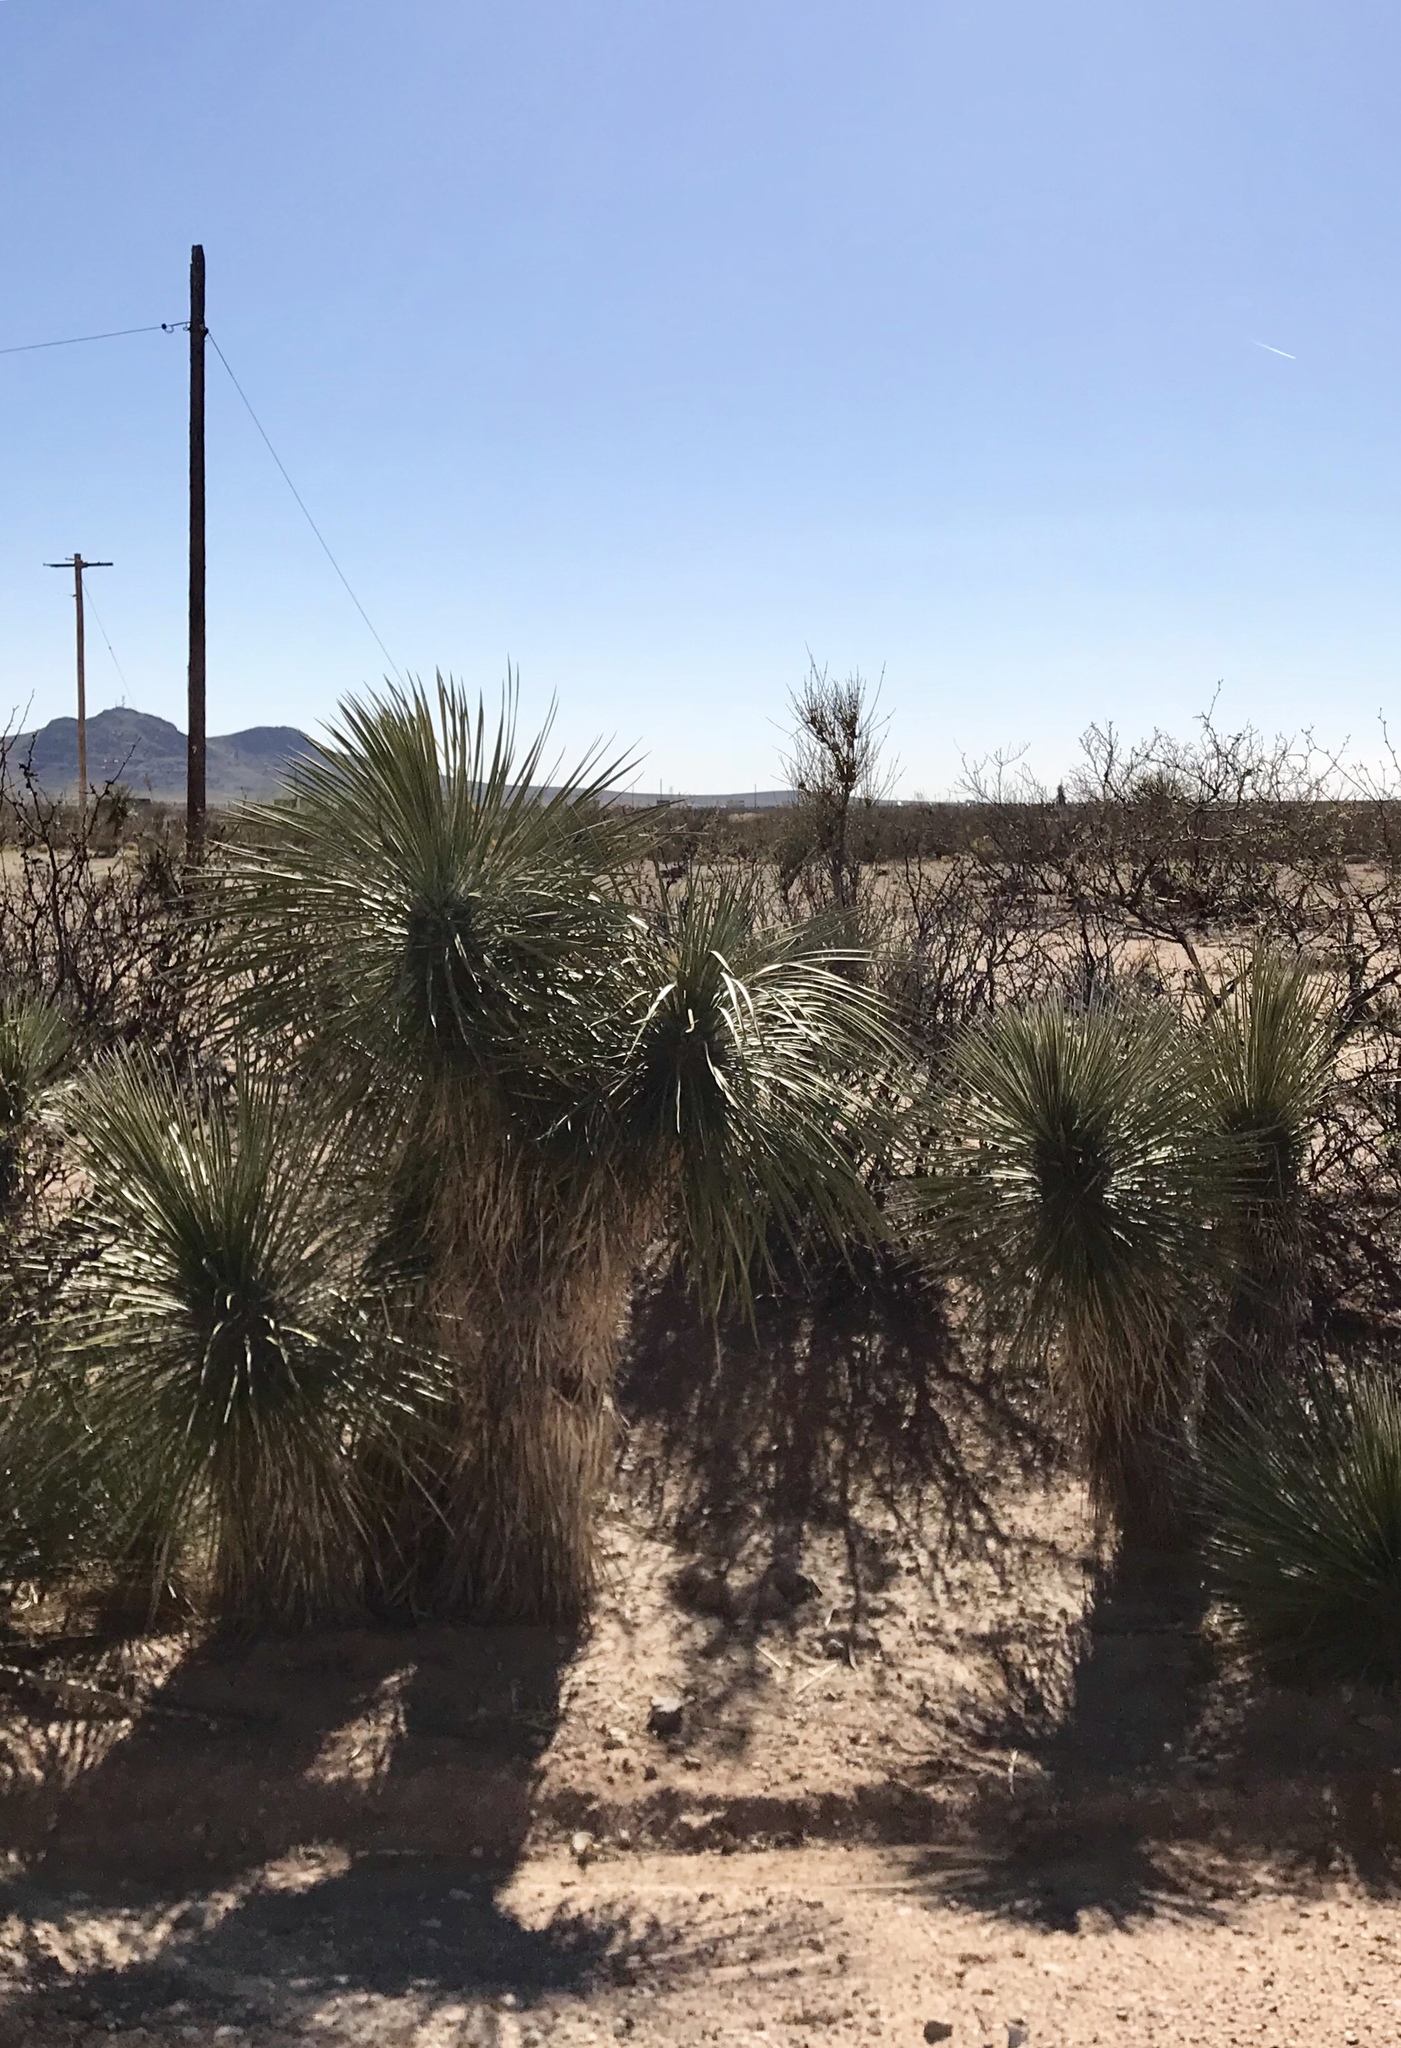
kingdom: Plantae
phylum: Tracheophyta
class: Liliopsida
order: Asparagales
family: Asparagaceae
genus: Yucca
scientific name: Yucca elata
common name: Palmella
